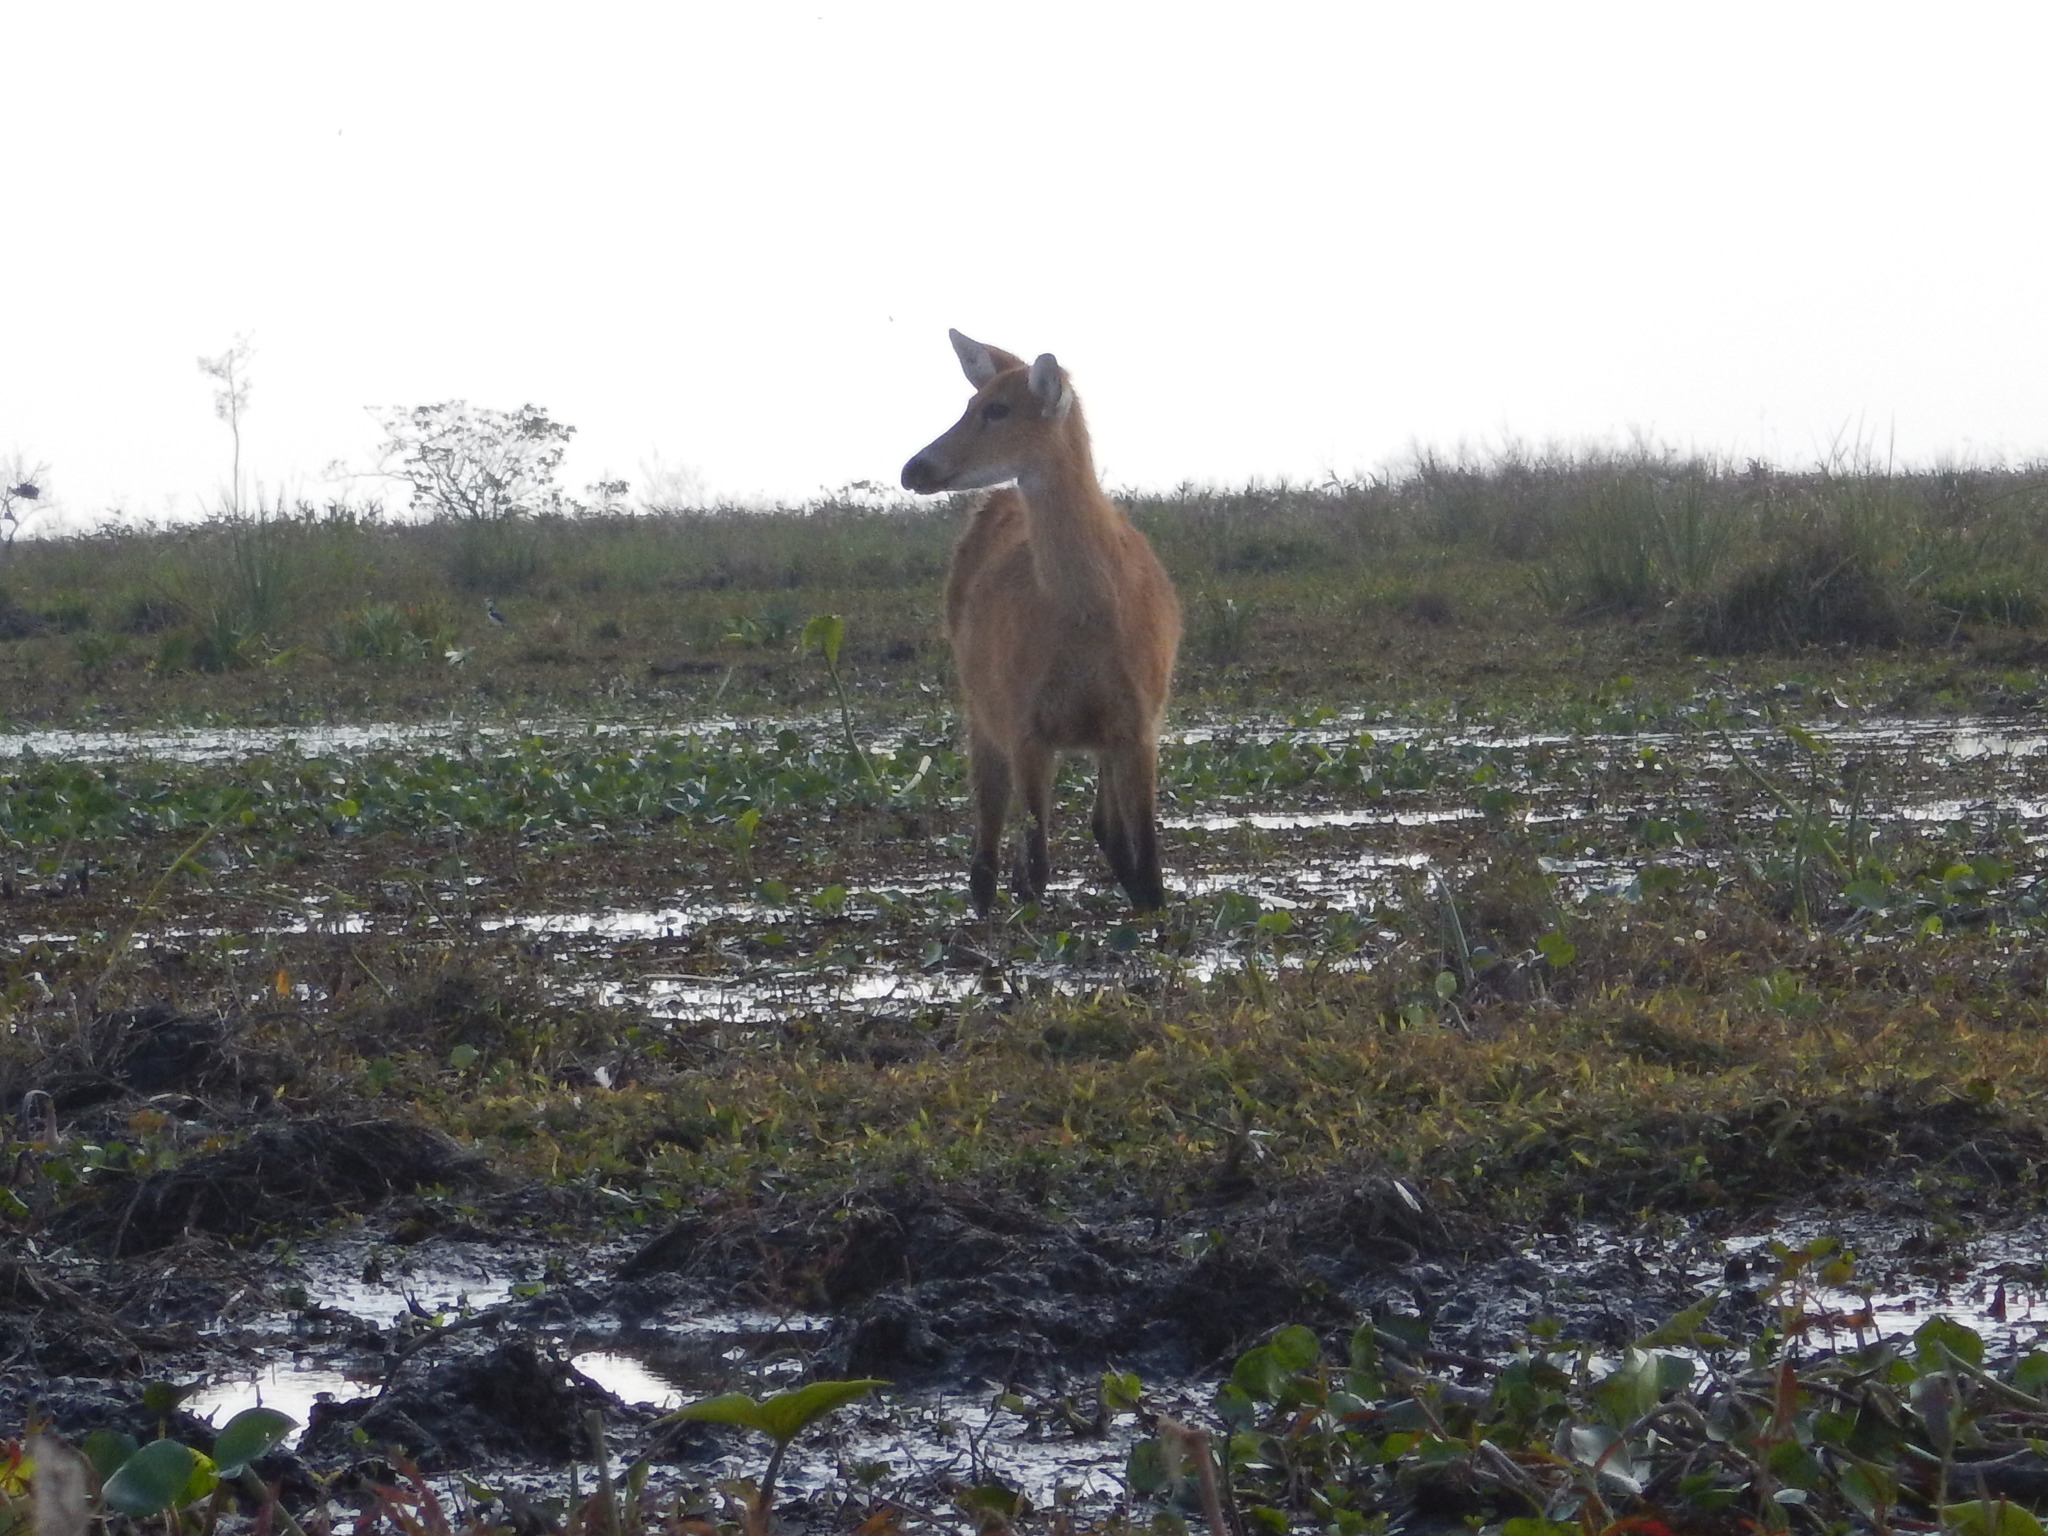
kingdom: Animalia
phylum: Chordata
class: Mammalia
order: Artiodactyla
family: Cervidae
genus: Blastocerus
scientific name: Blastocerus dichotomus
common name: Marsh deer
